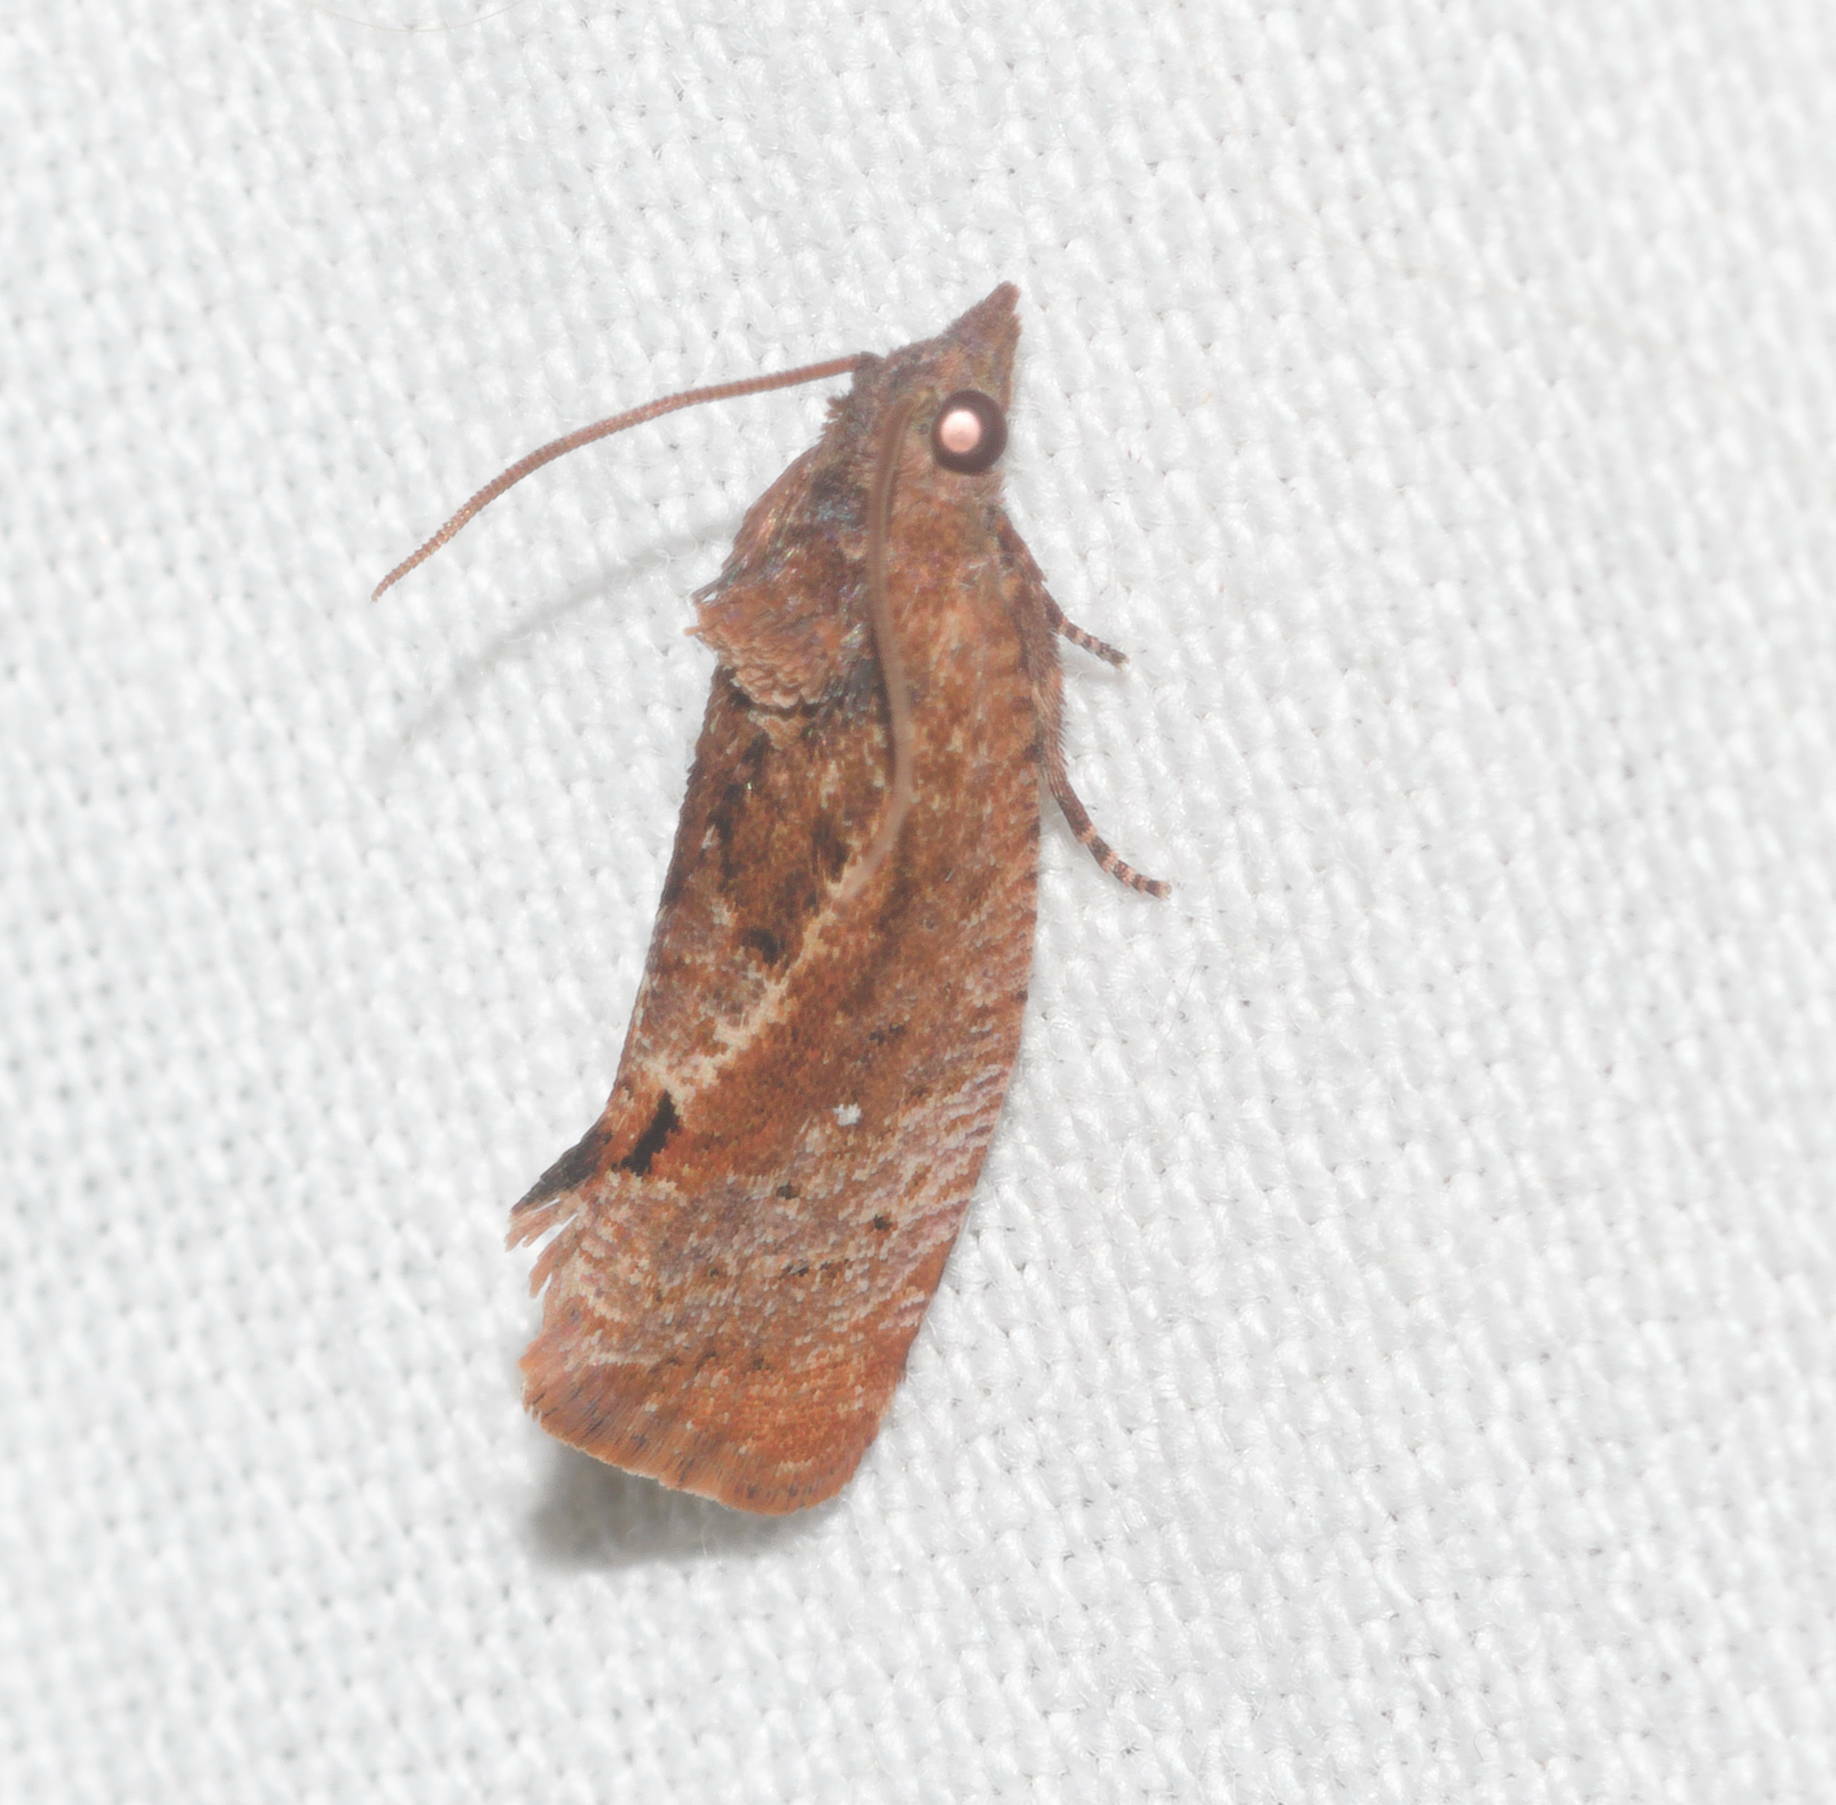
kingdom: Animalia
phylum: Arthropoda
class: Insecta
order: Lepidoptera
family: Tortricidae
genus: Cryptophlebia
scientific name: Cryptophlebia illepida
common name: Moth
